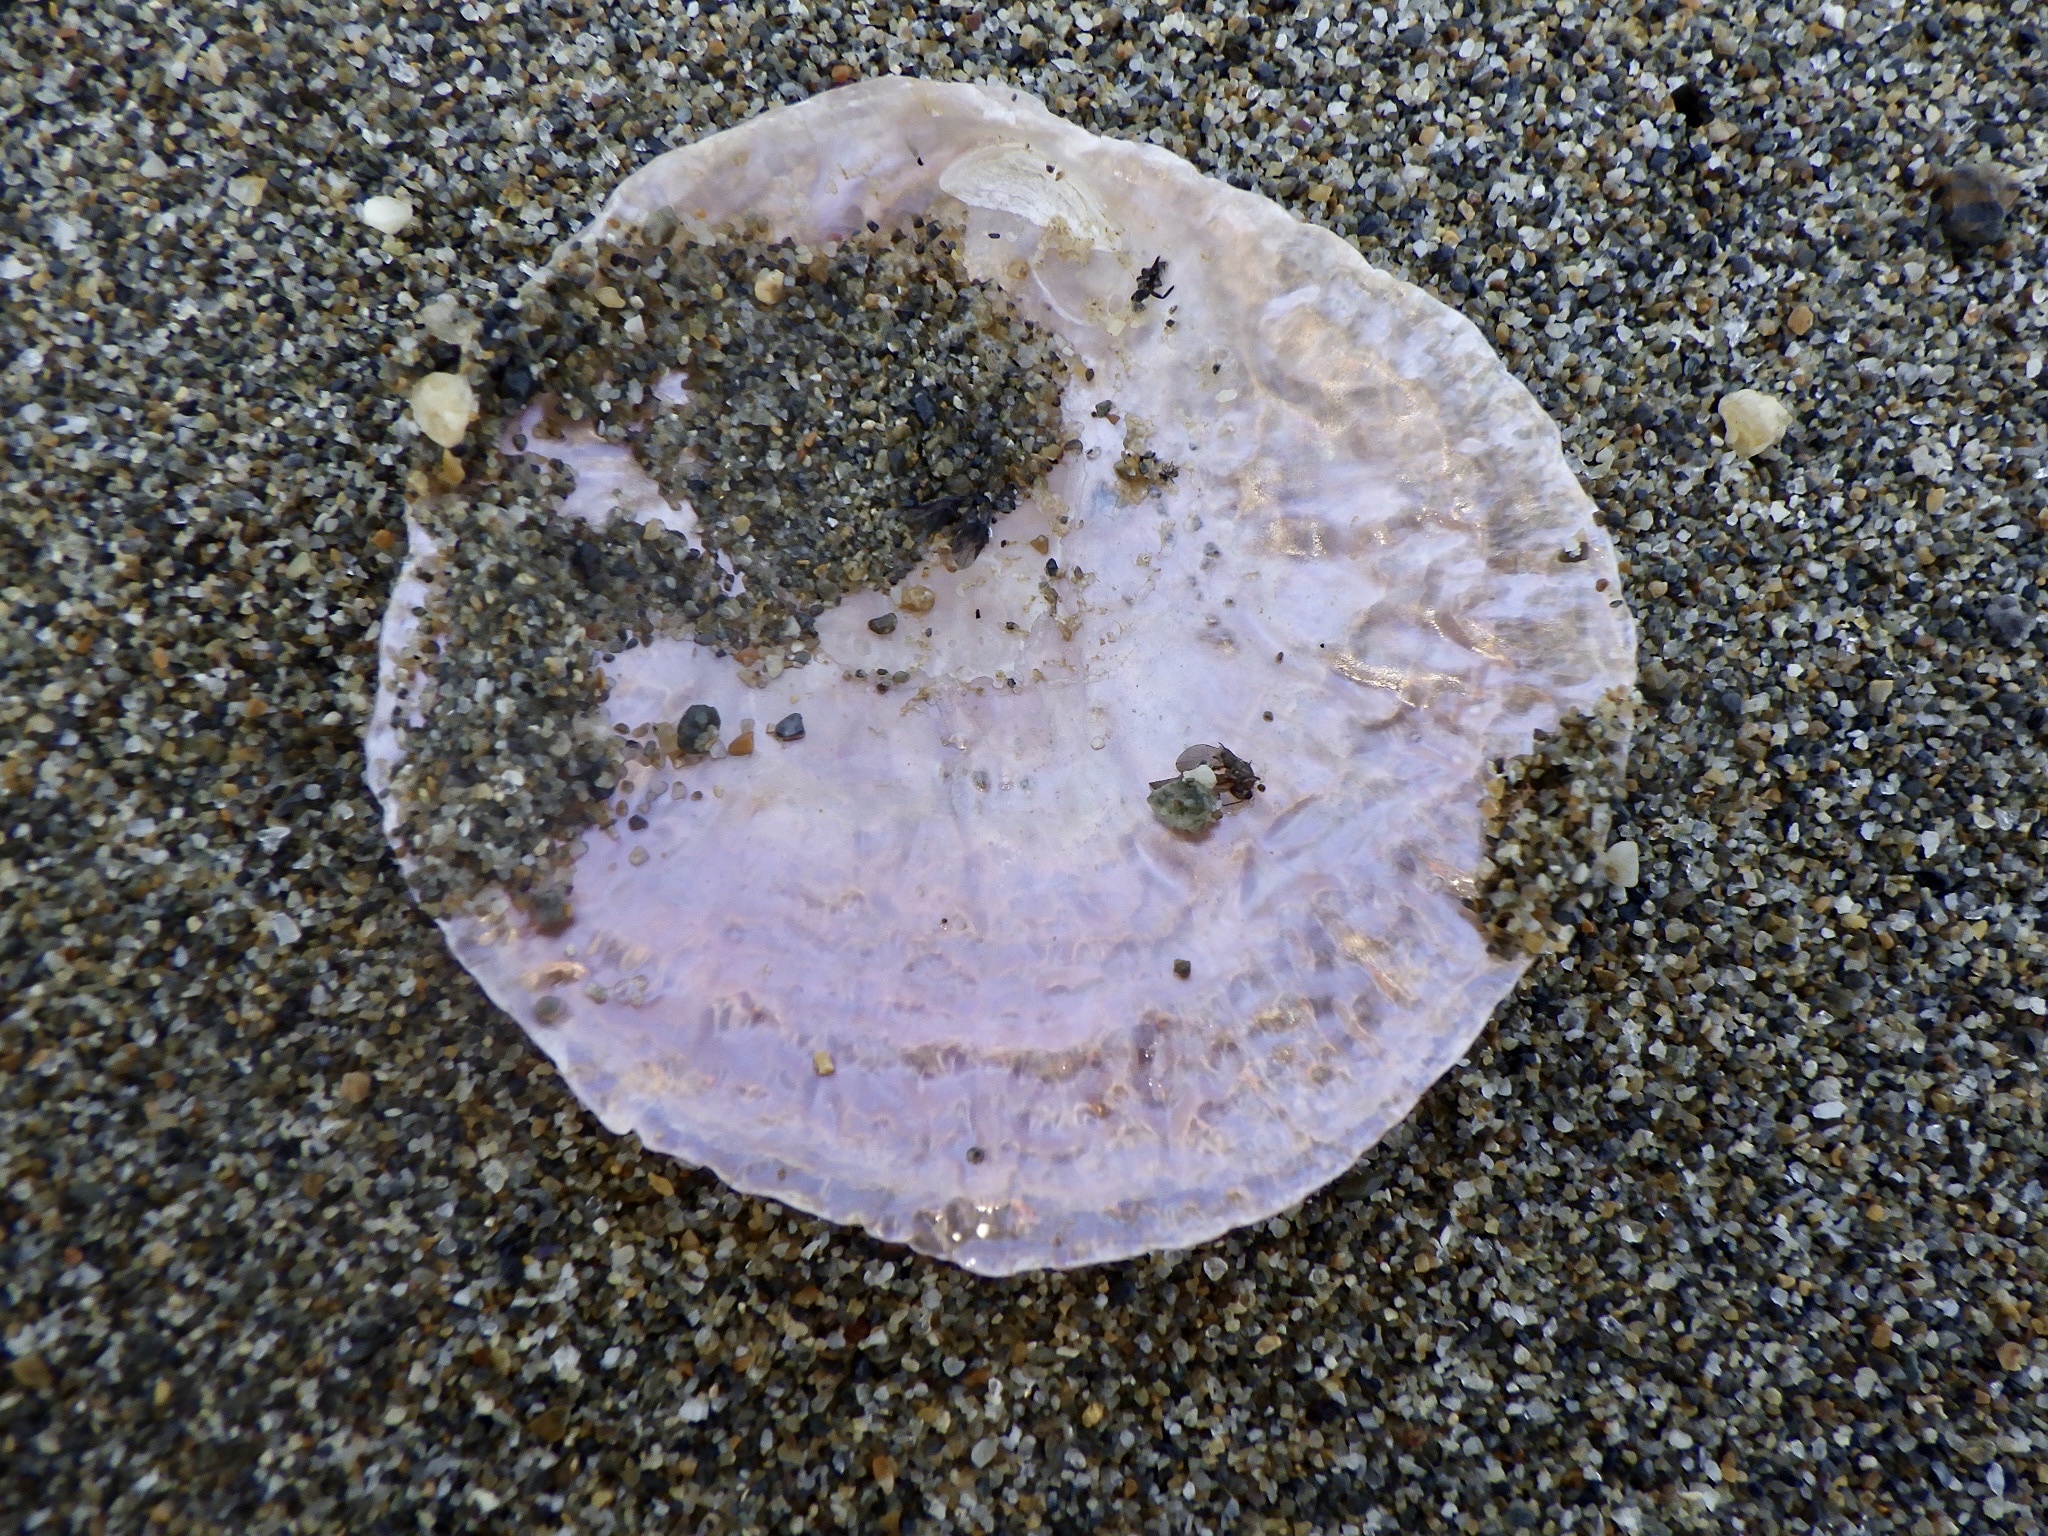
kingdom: Animalia
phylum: Mollusca
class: Bivalvia
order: Pectinida
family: Anomiidae
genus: Anomia
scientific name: Anomia chinensis
